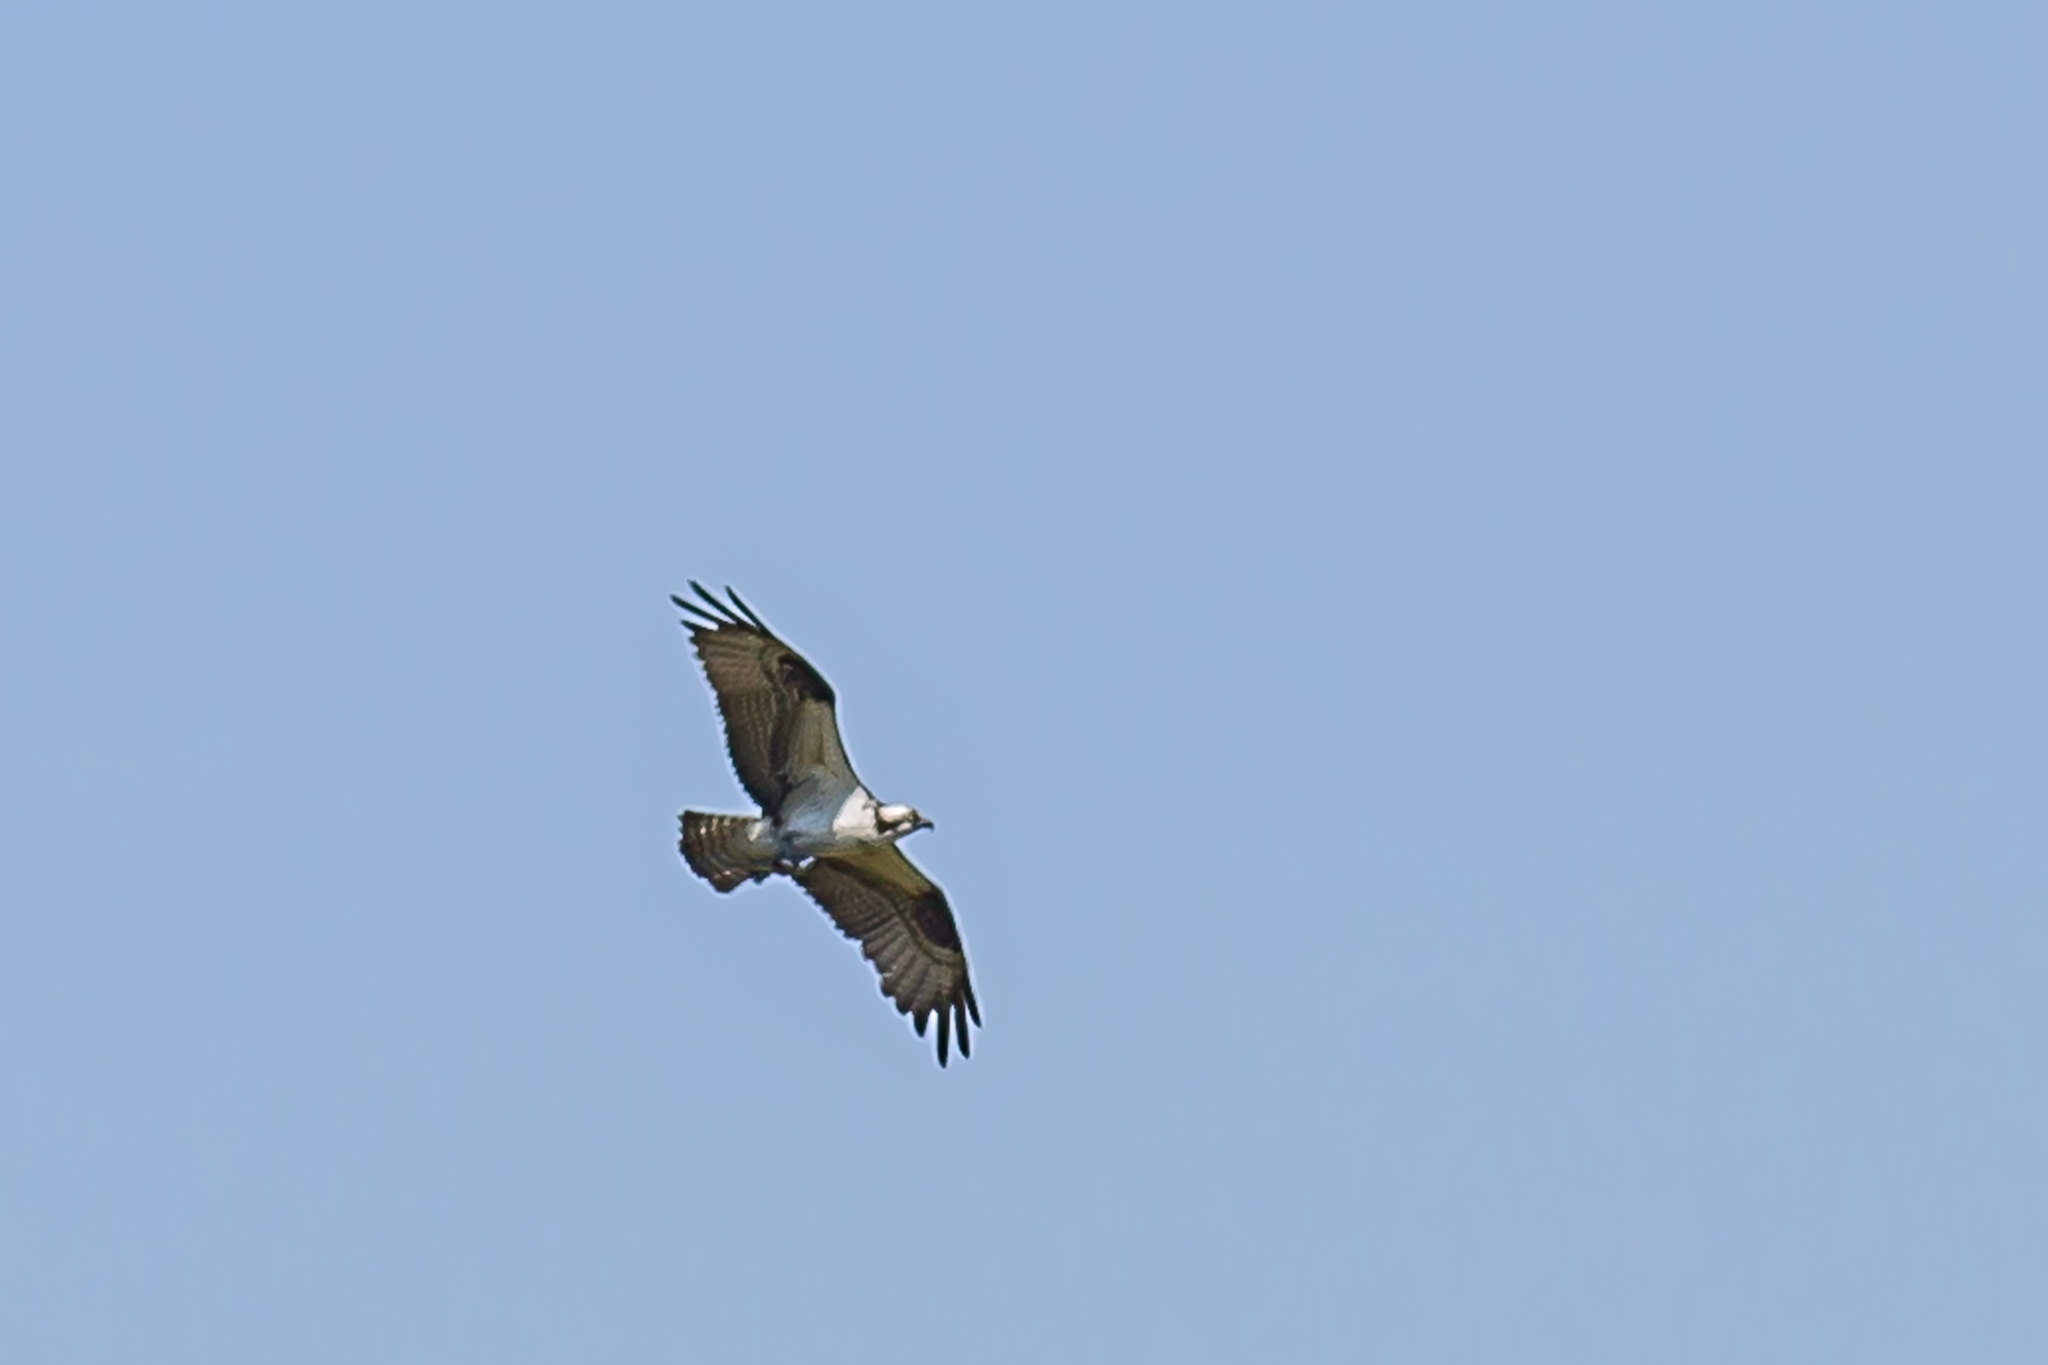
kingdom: Animalia
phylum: Chordata
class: Aves
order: Accipitriformes
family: Pandionidae
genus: Pandion
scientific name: Pandion haliaetus
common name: Osprey
